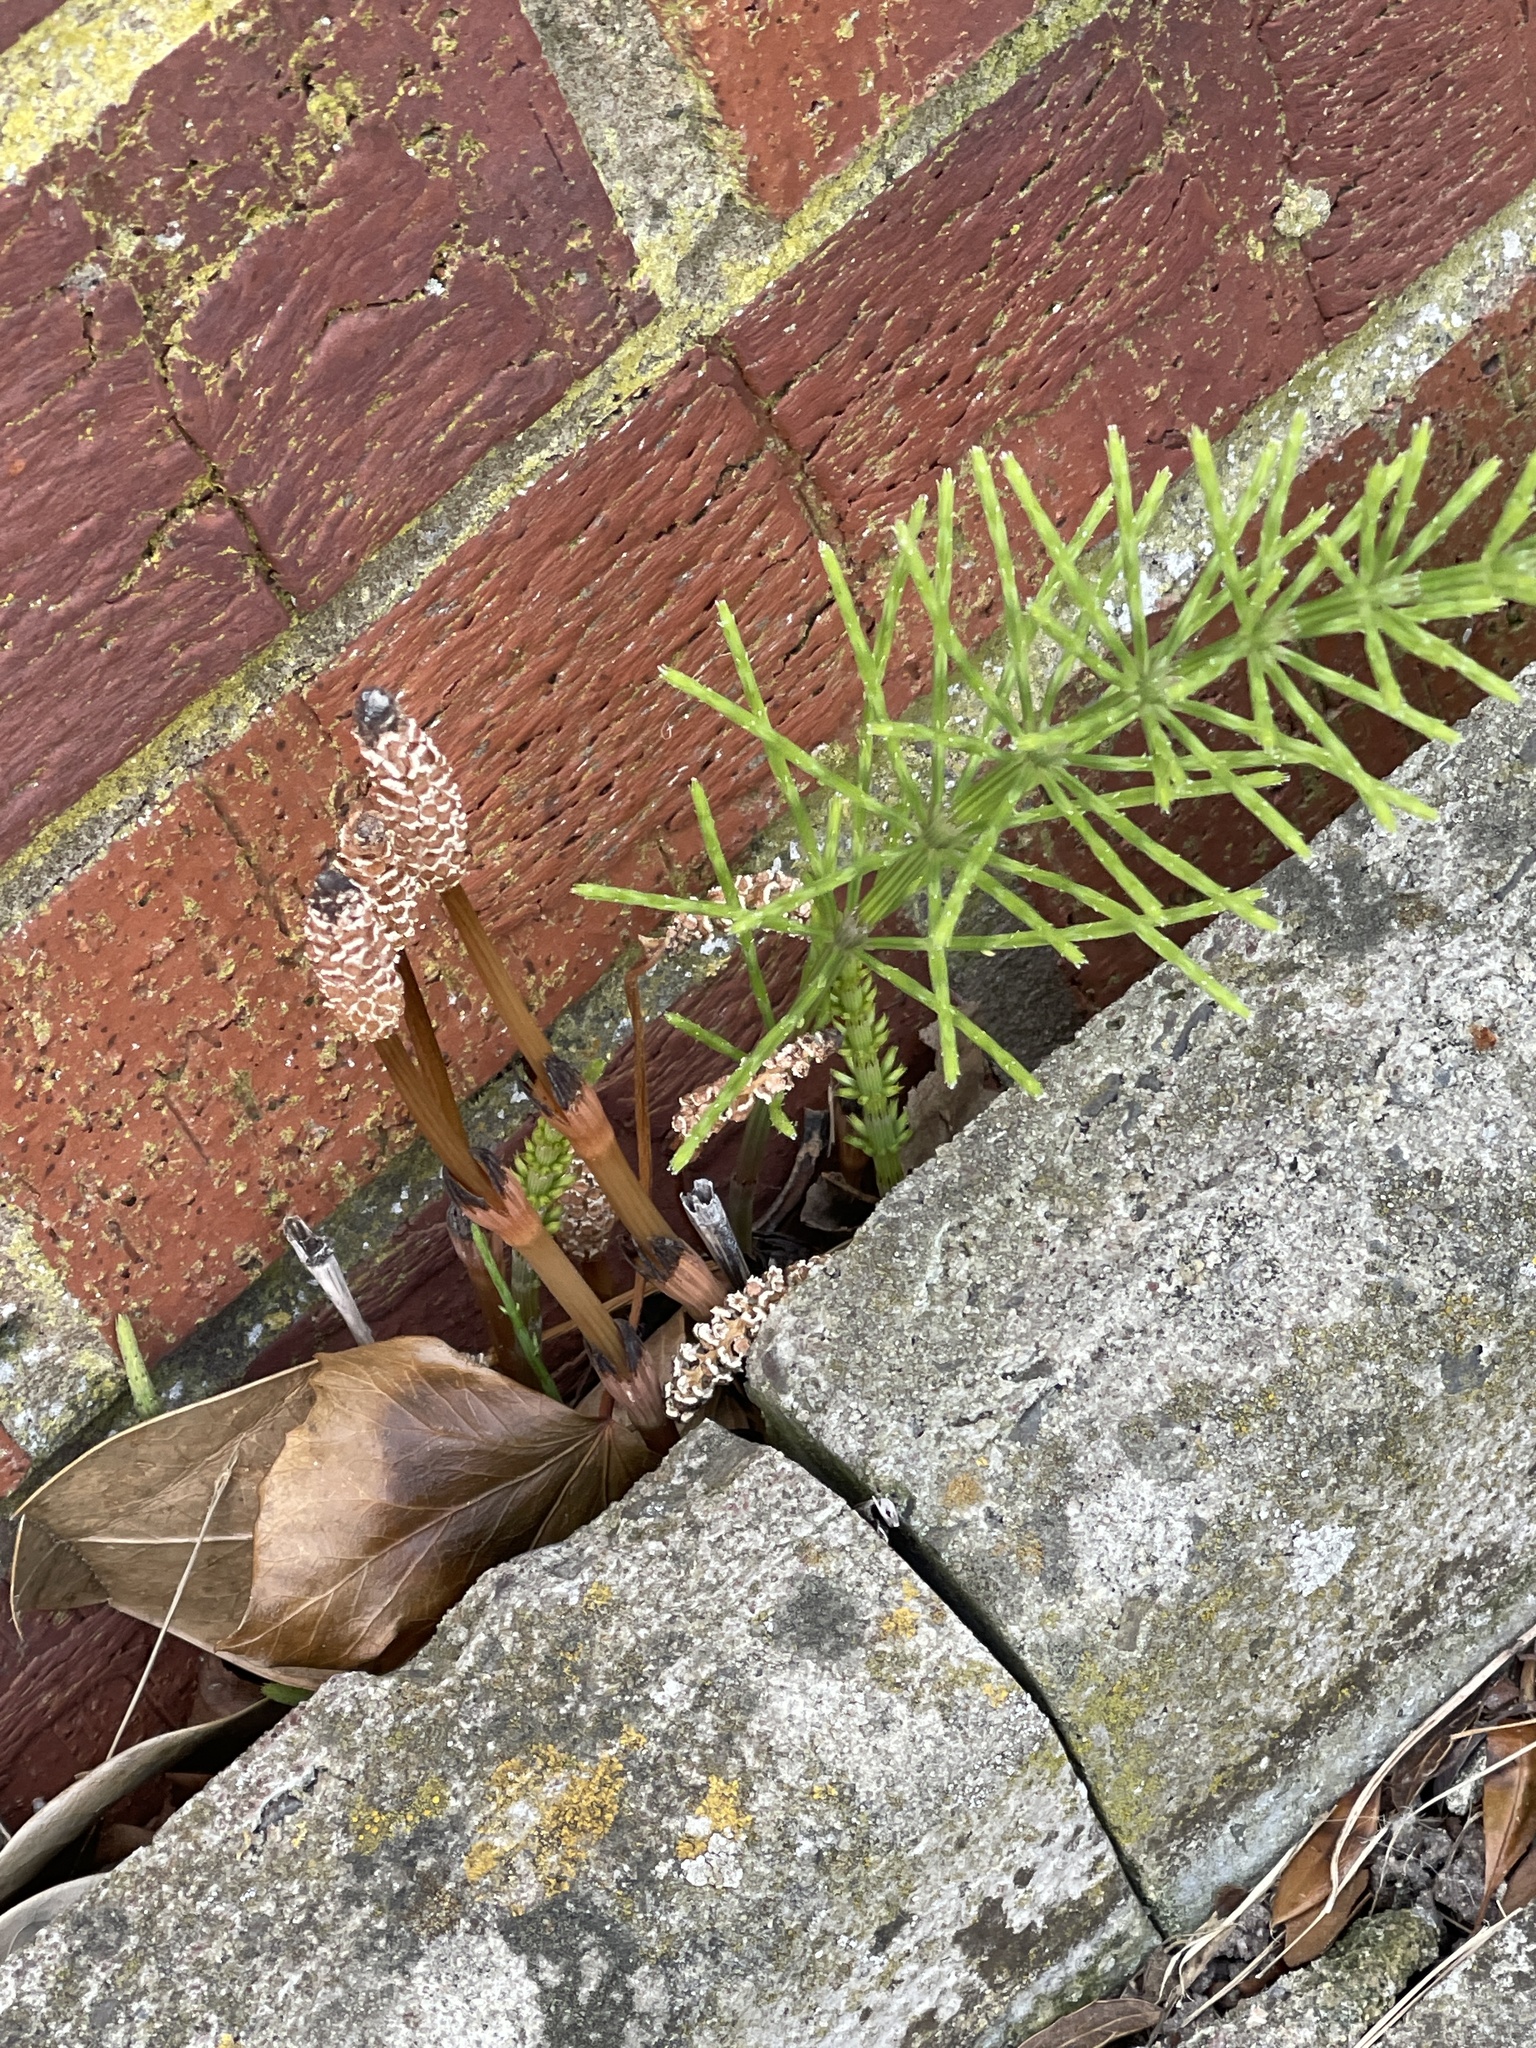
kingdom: Plantae
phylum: Tracheophyta
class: Polypodiopsida
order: Equisetales
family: Equisetaceae
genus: Equisetum
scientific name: Equisetum arvense
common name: Field horsetail
